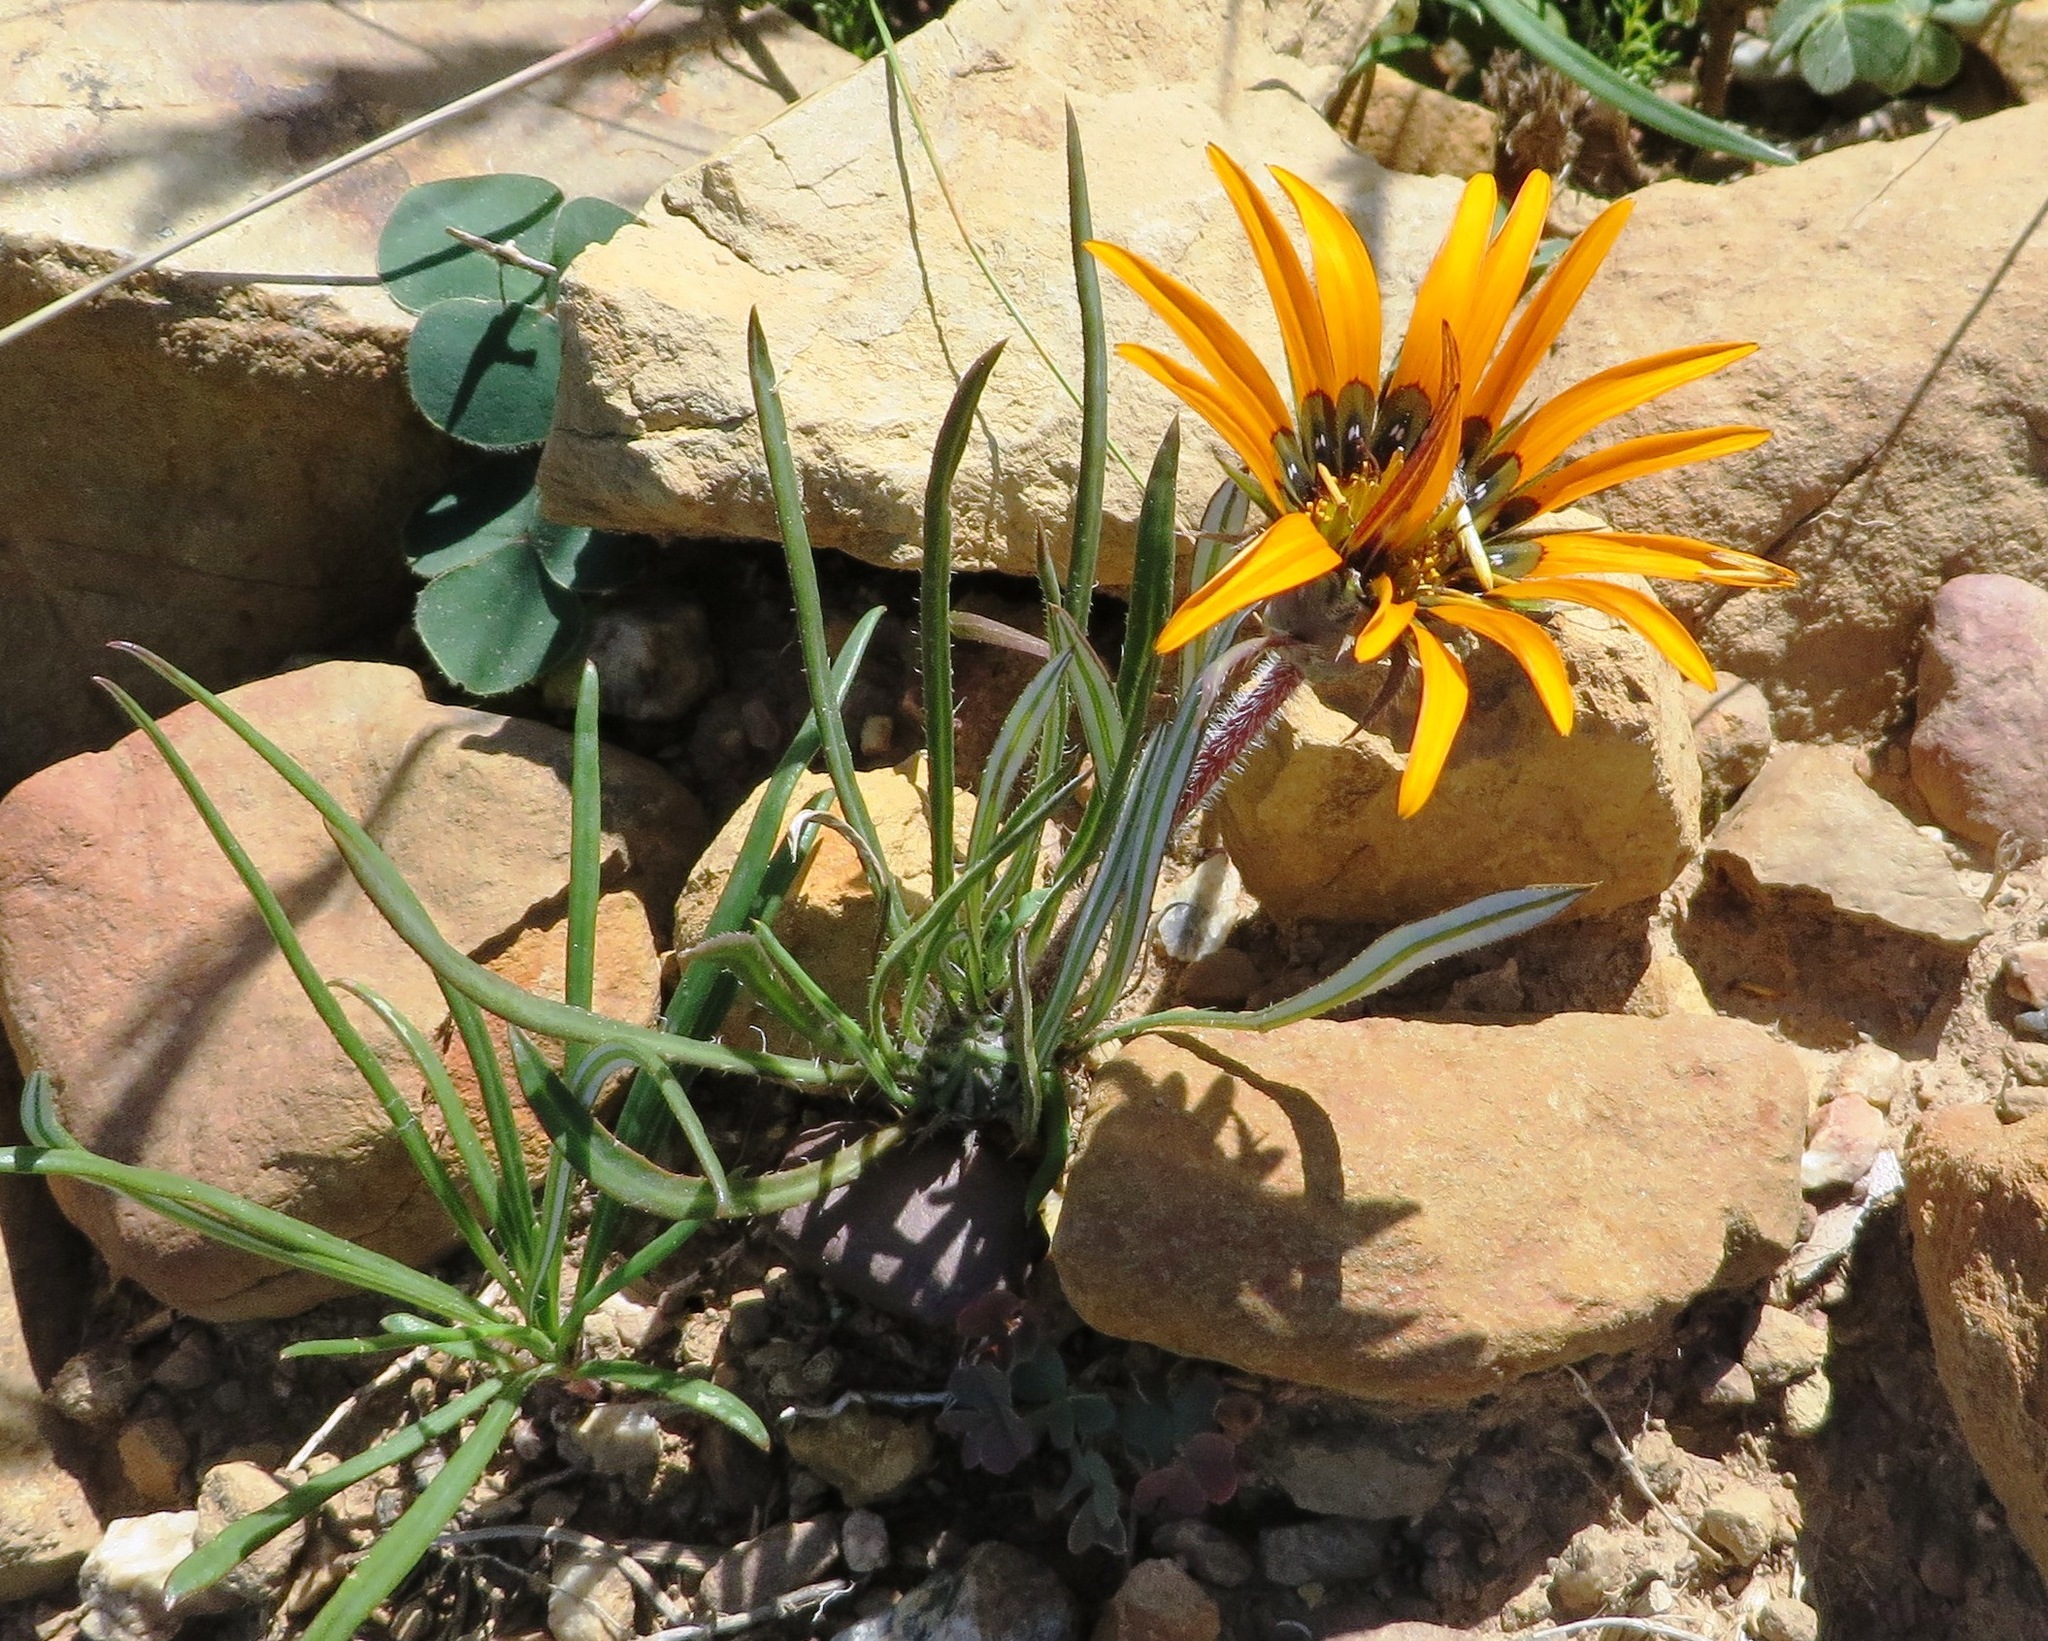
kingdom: Plantae
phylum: Tracheophyta
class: Magnoliopsida
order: Asterales
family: Asteraceae
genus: Gazania
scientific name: Gazania ciliaris
